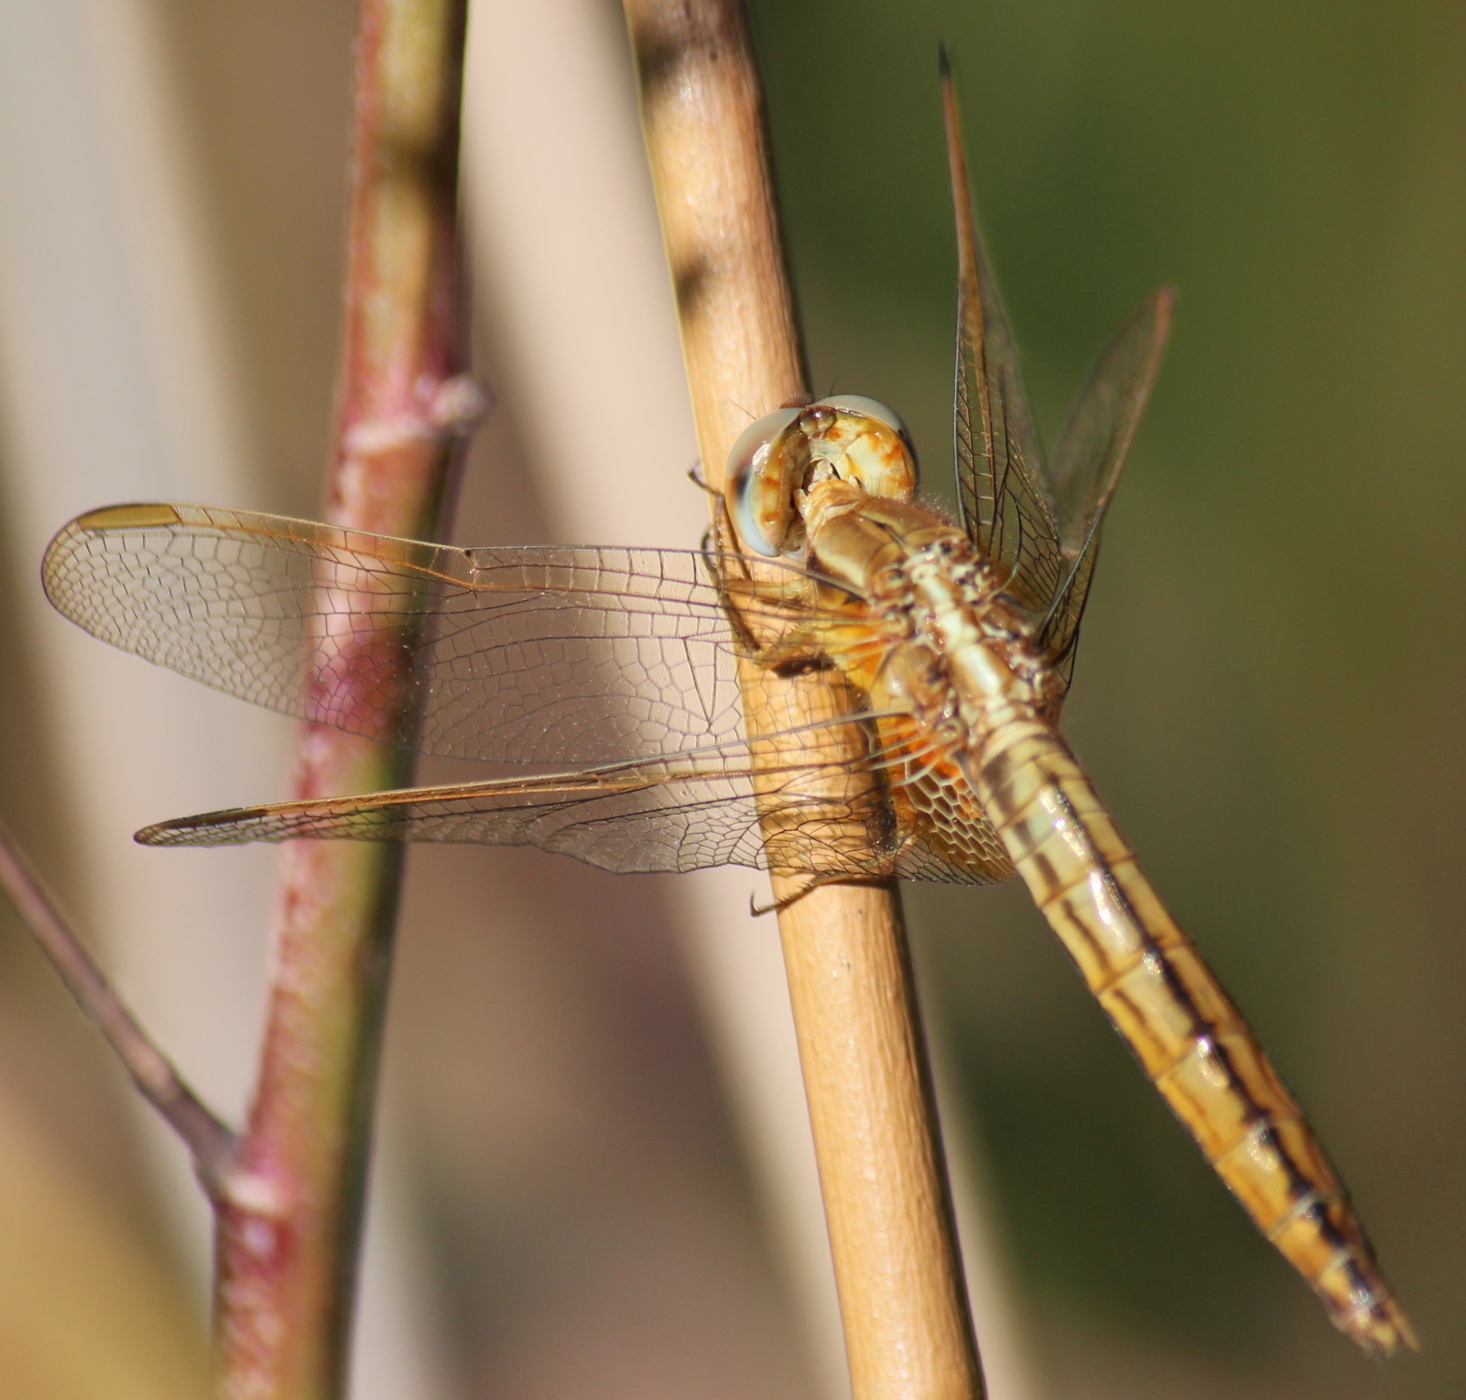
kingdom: Animalia
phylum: Arthropoda
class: Insecta
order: Odonata
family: Libellulidae
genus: Crocothemis
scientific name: Crocothemis erythraea
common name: Scarlet dragonfly
